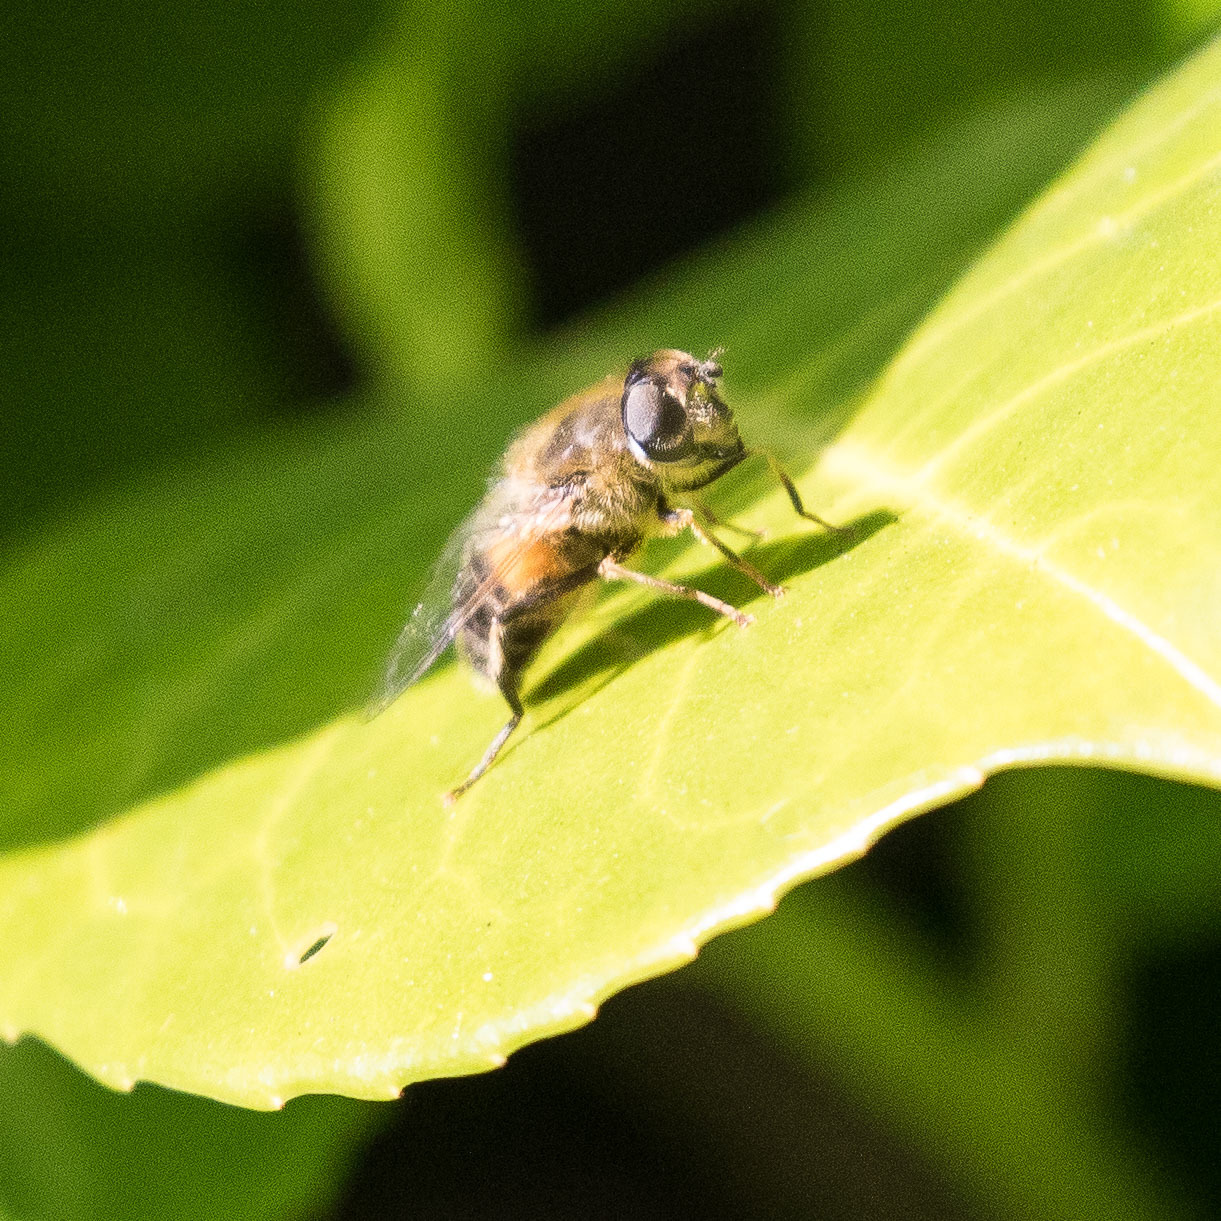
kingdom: Animalia
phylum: Arthropoda
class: Insecta
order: Diptera
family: Syrphidae
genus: Eristalis
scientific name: Eristalis pertinax
